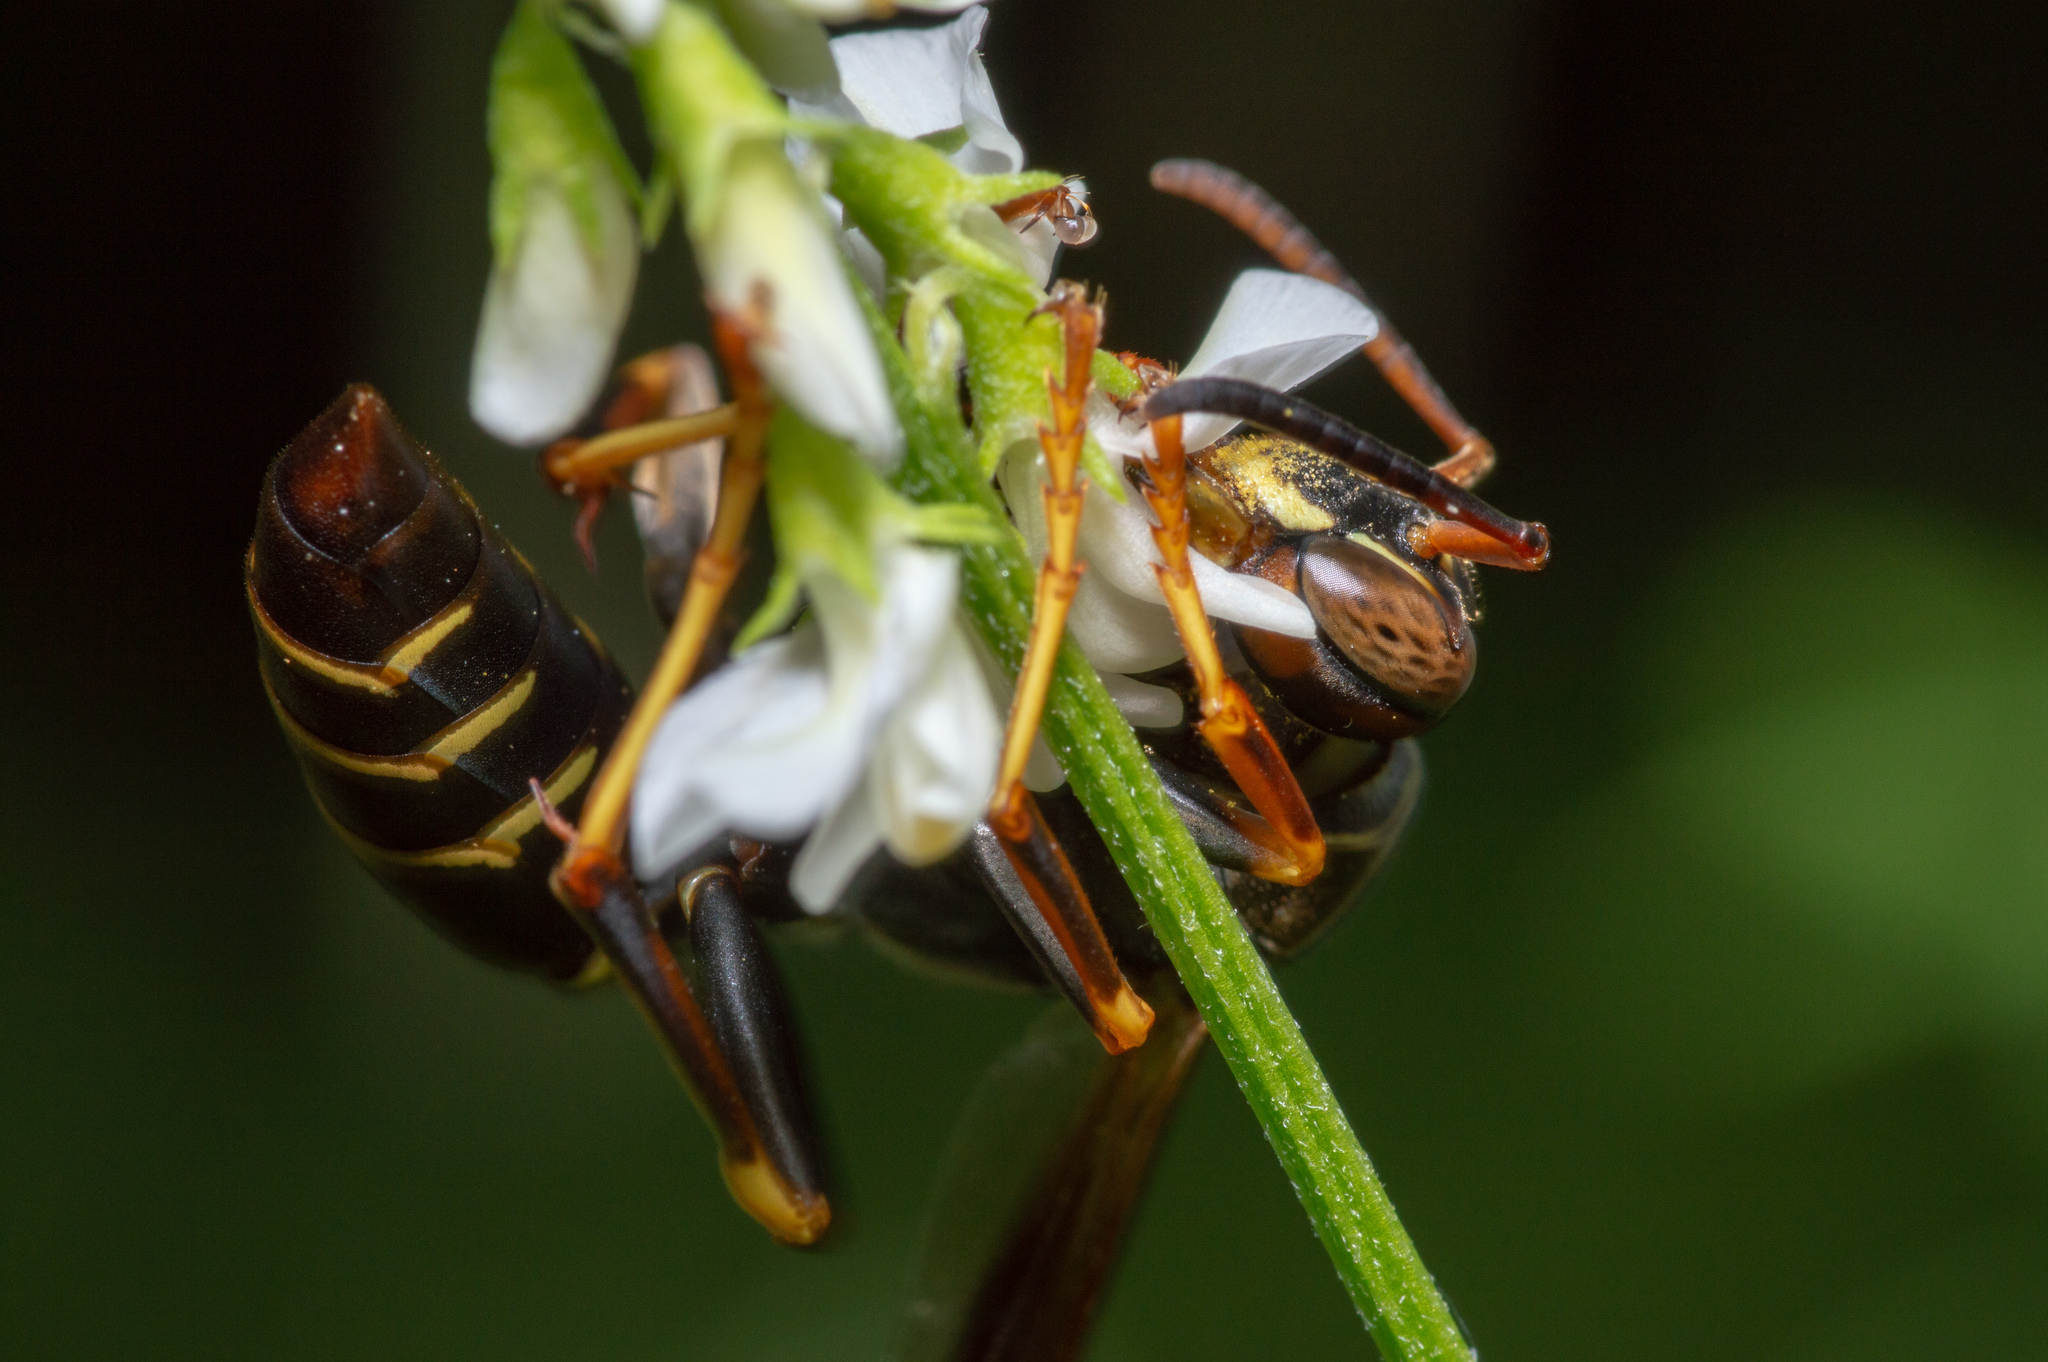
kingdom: Animalia
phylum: Arthropoda
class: Insecta
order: Hymenoptera
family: Eumenidae
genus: Polistes
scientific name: Polistes fuscatus
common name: Dark paper wasp
